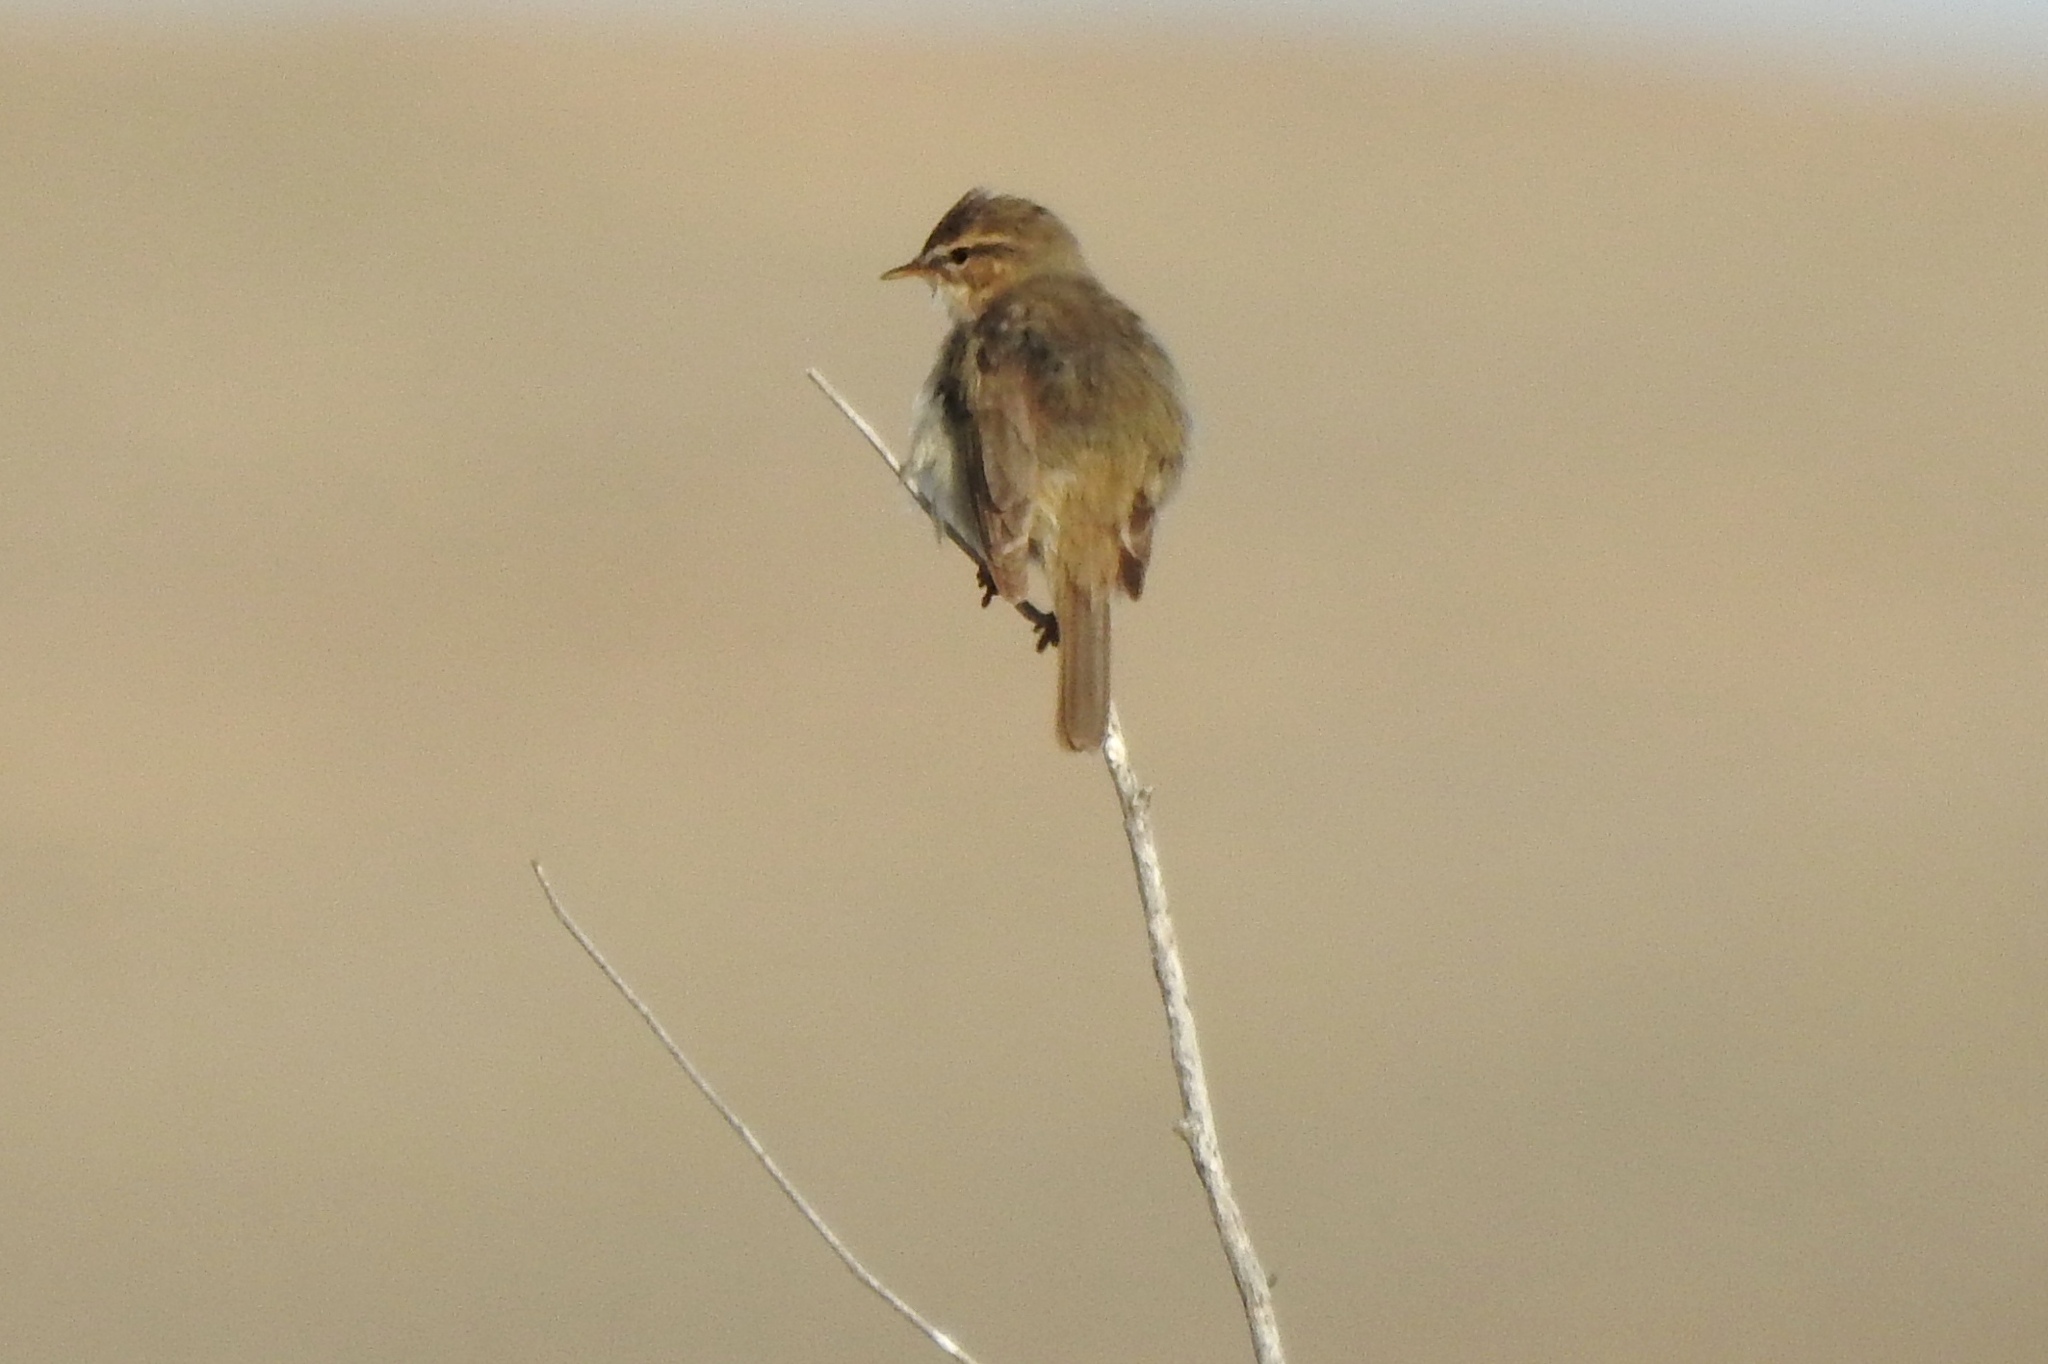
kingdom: Animalia
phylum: Chordata
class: Aves
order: Passeriformes
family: Phylloscopidae
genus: Phylloscopus
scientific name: Phylloscopus fuscatus
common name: Dusky warbler
